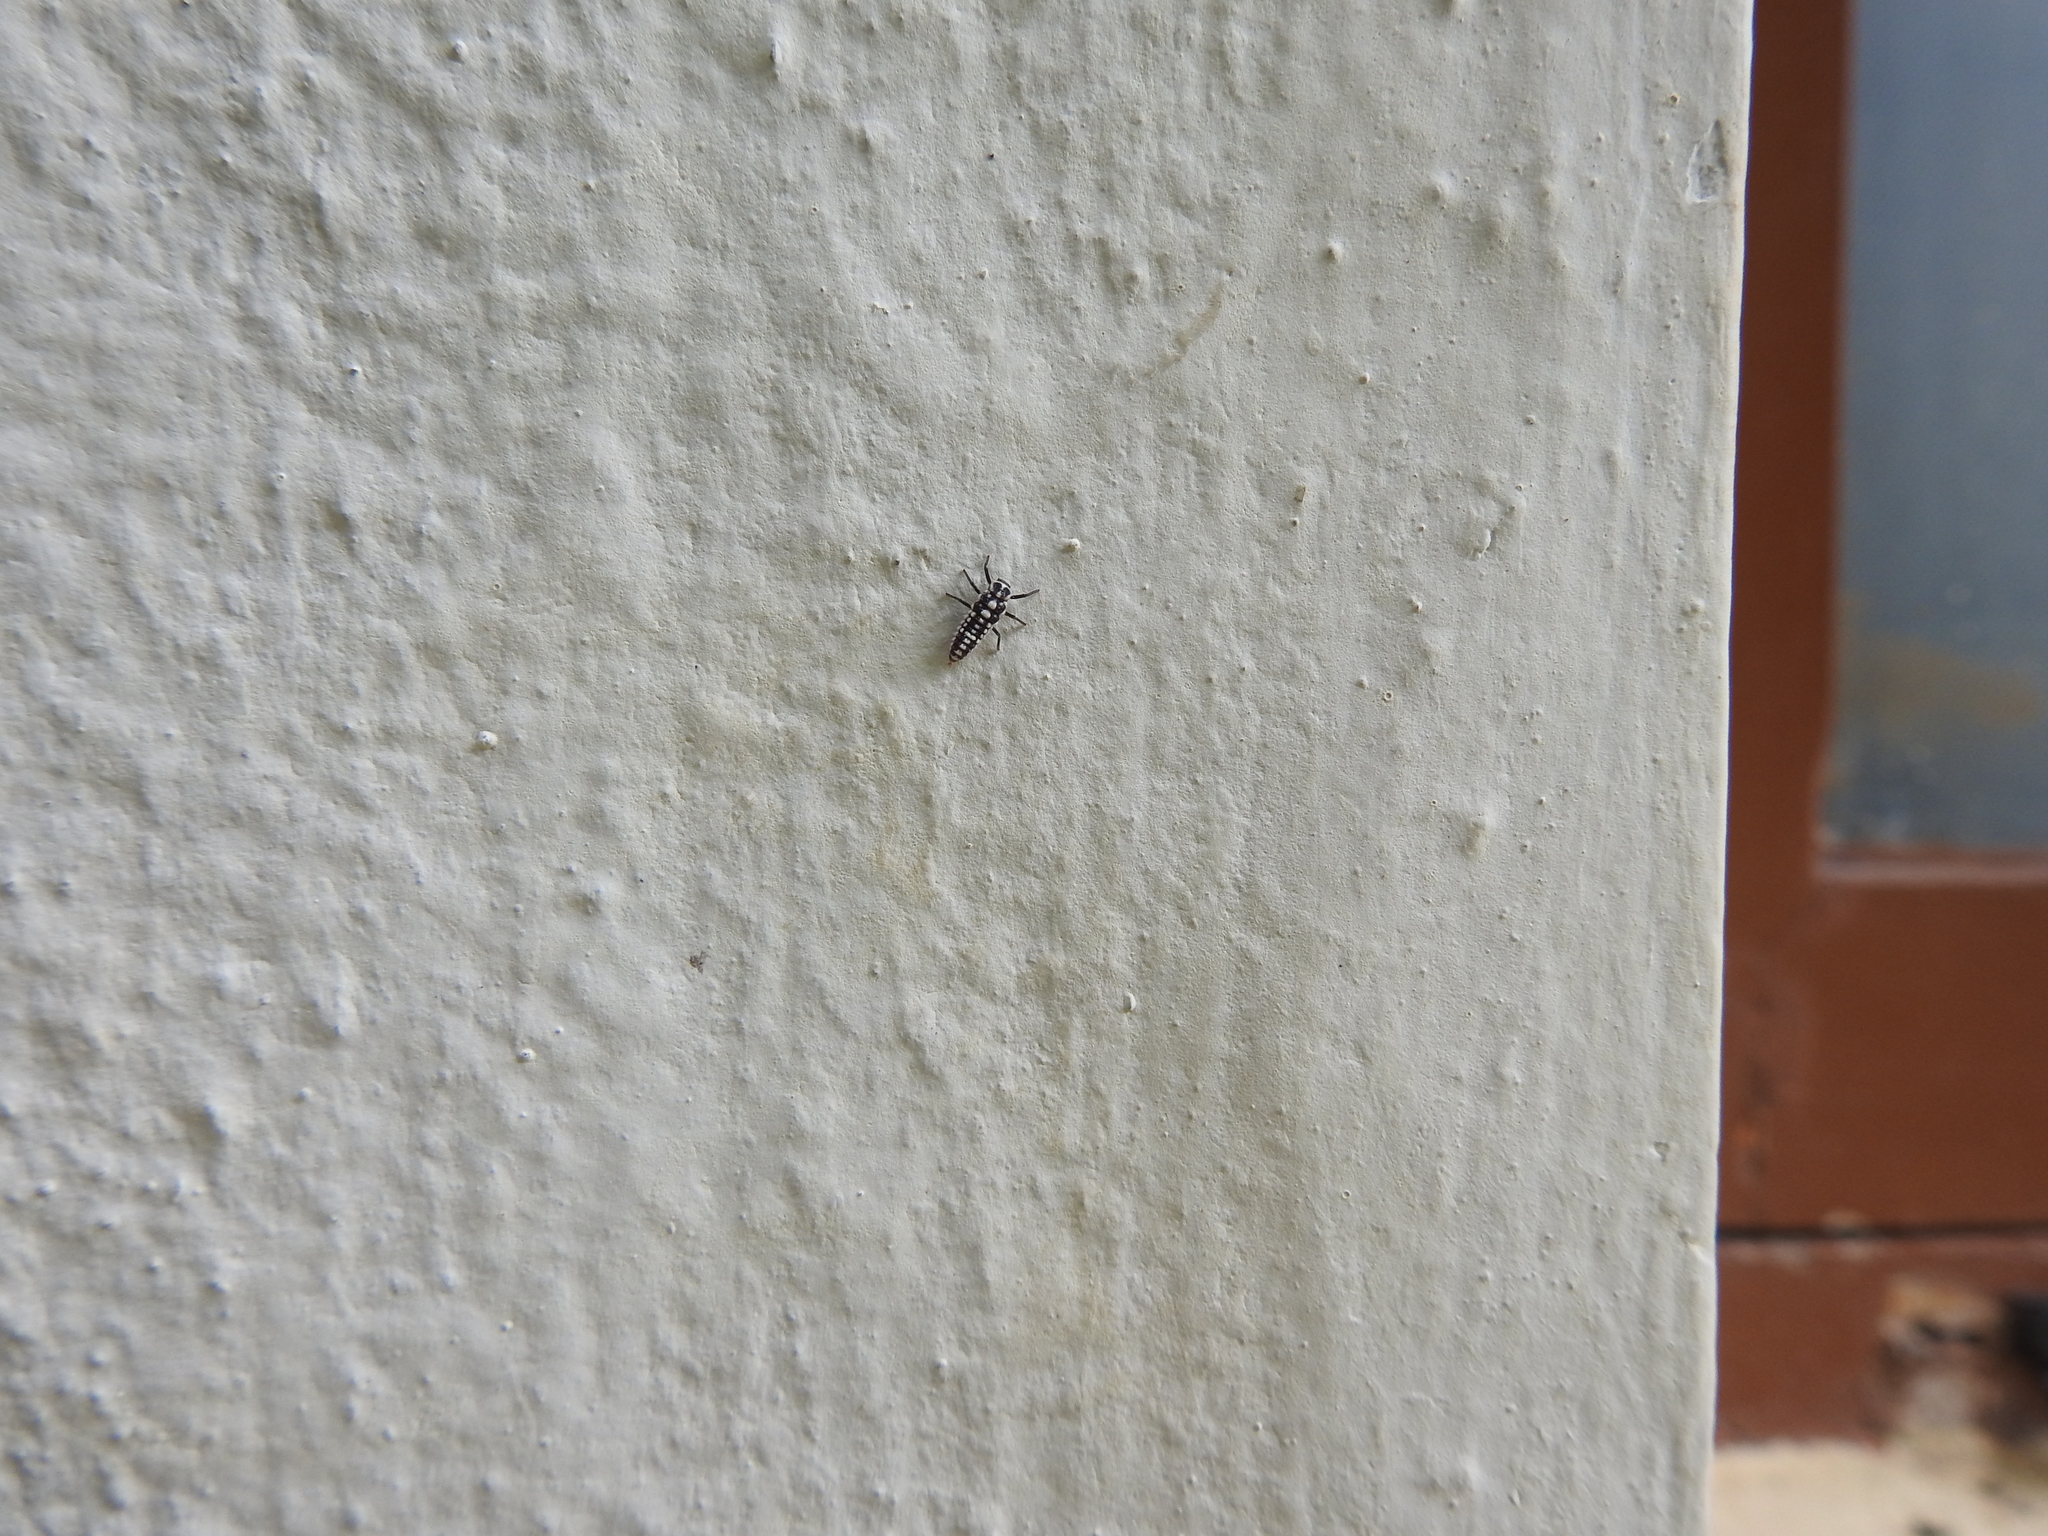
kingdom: Animalia
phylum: Arthropoda
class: Insecta
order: Coleoptera
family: Coccinellidae
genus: Anegleis
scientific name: Anegleis cardoni
